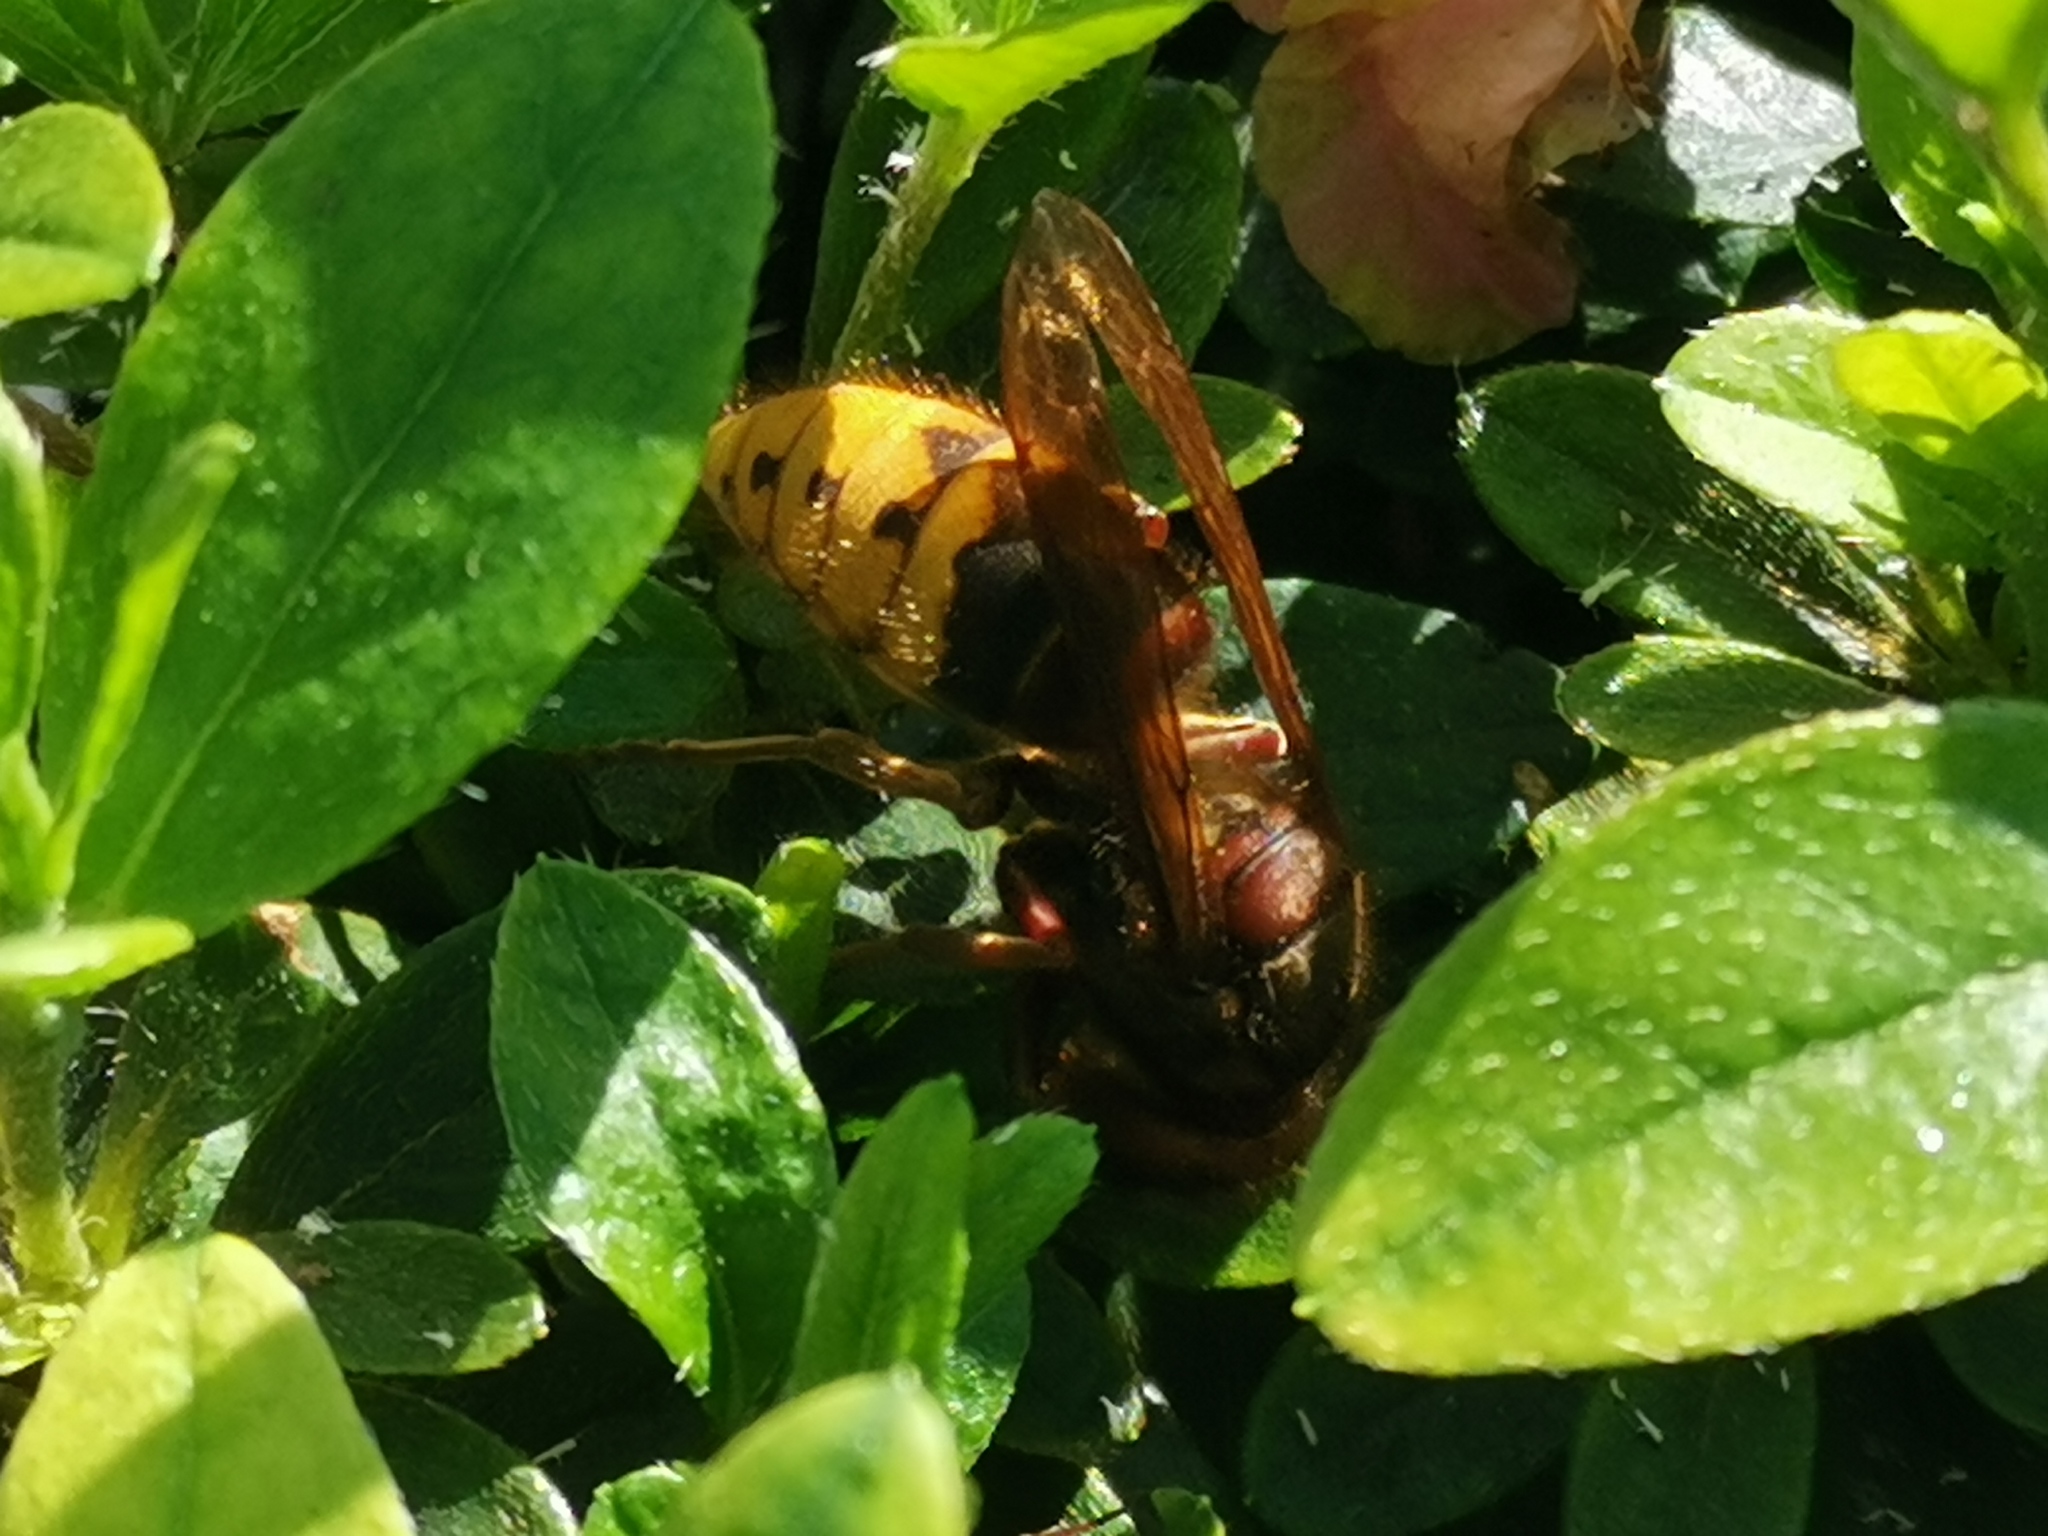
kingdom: Animalia
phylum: Arthropoda
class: Insecta
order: Hymenoptera
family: Vespidae
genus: Vespa
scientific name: Vespa crabro
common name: Hornet
